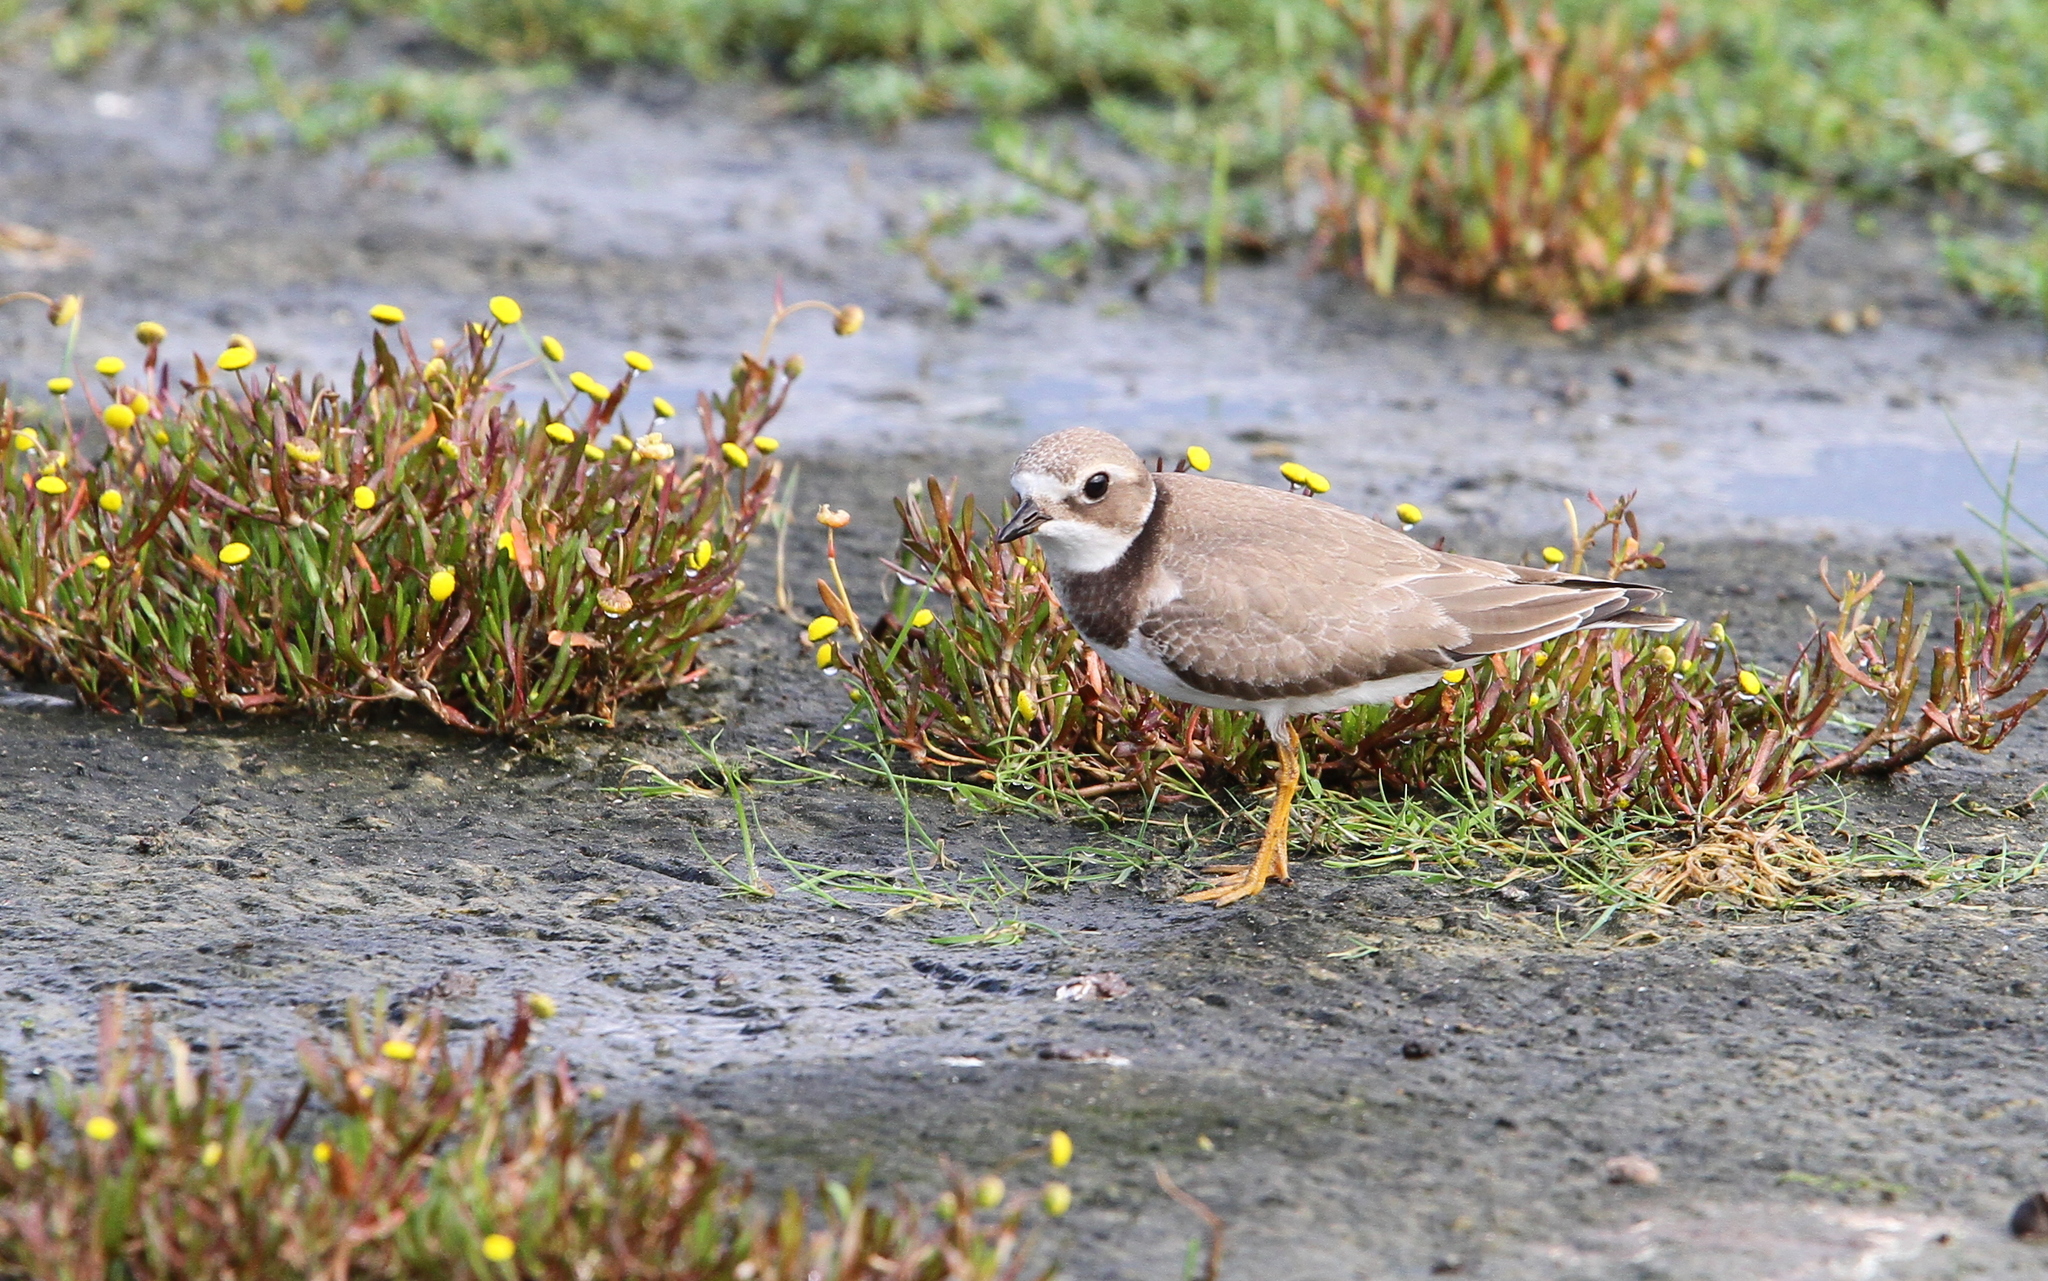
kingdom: Animalia
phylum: Chordata
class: Aves
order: Charadriiformes
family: Charadriidae
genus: Charadrius
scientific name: Charadrius hiaticula
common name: Common ringed plover
